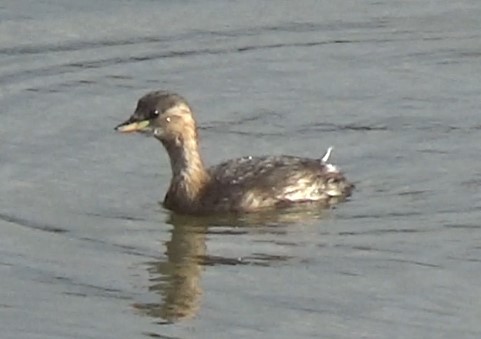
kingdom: Animalia
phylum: Chordata
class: Aves
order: Podicipediformes
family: Podicipedidae
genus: Tachybaptus
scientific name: Tachybaptus ruficollis
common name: Little grebe
